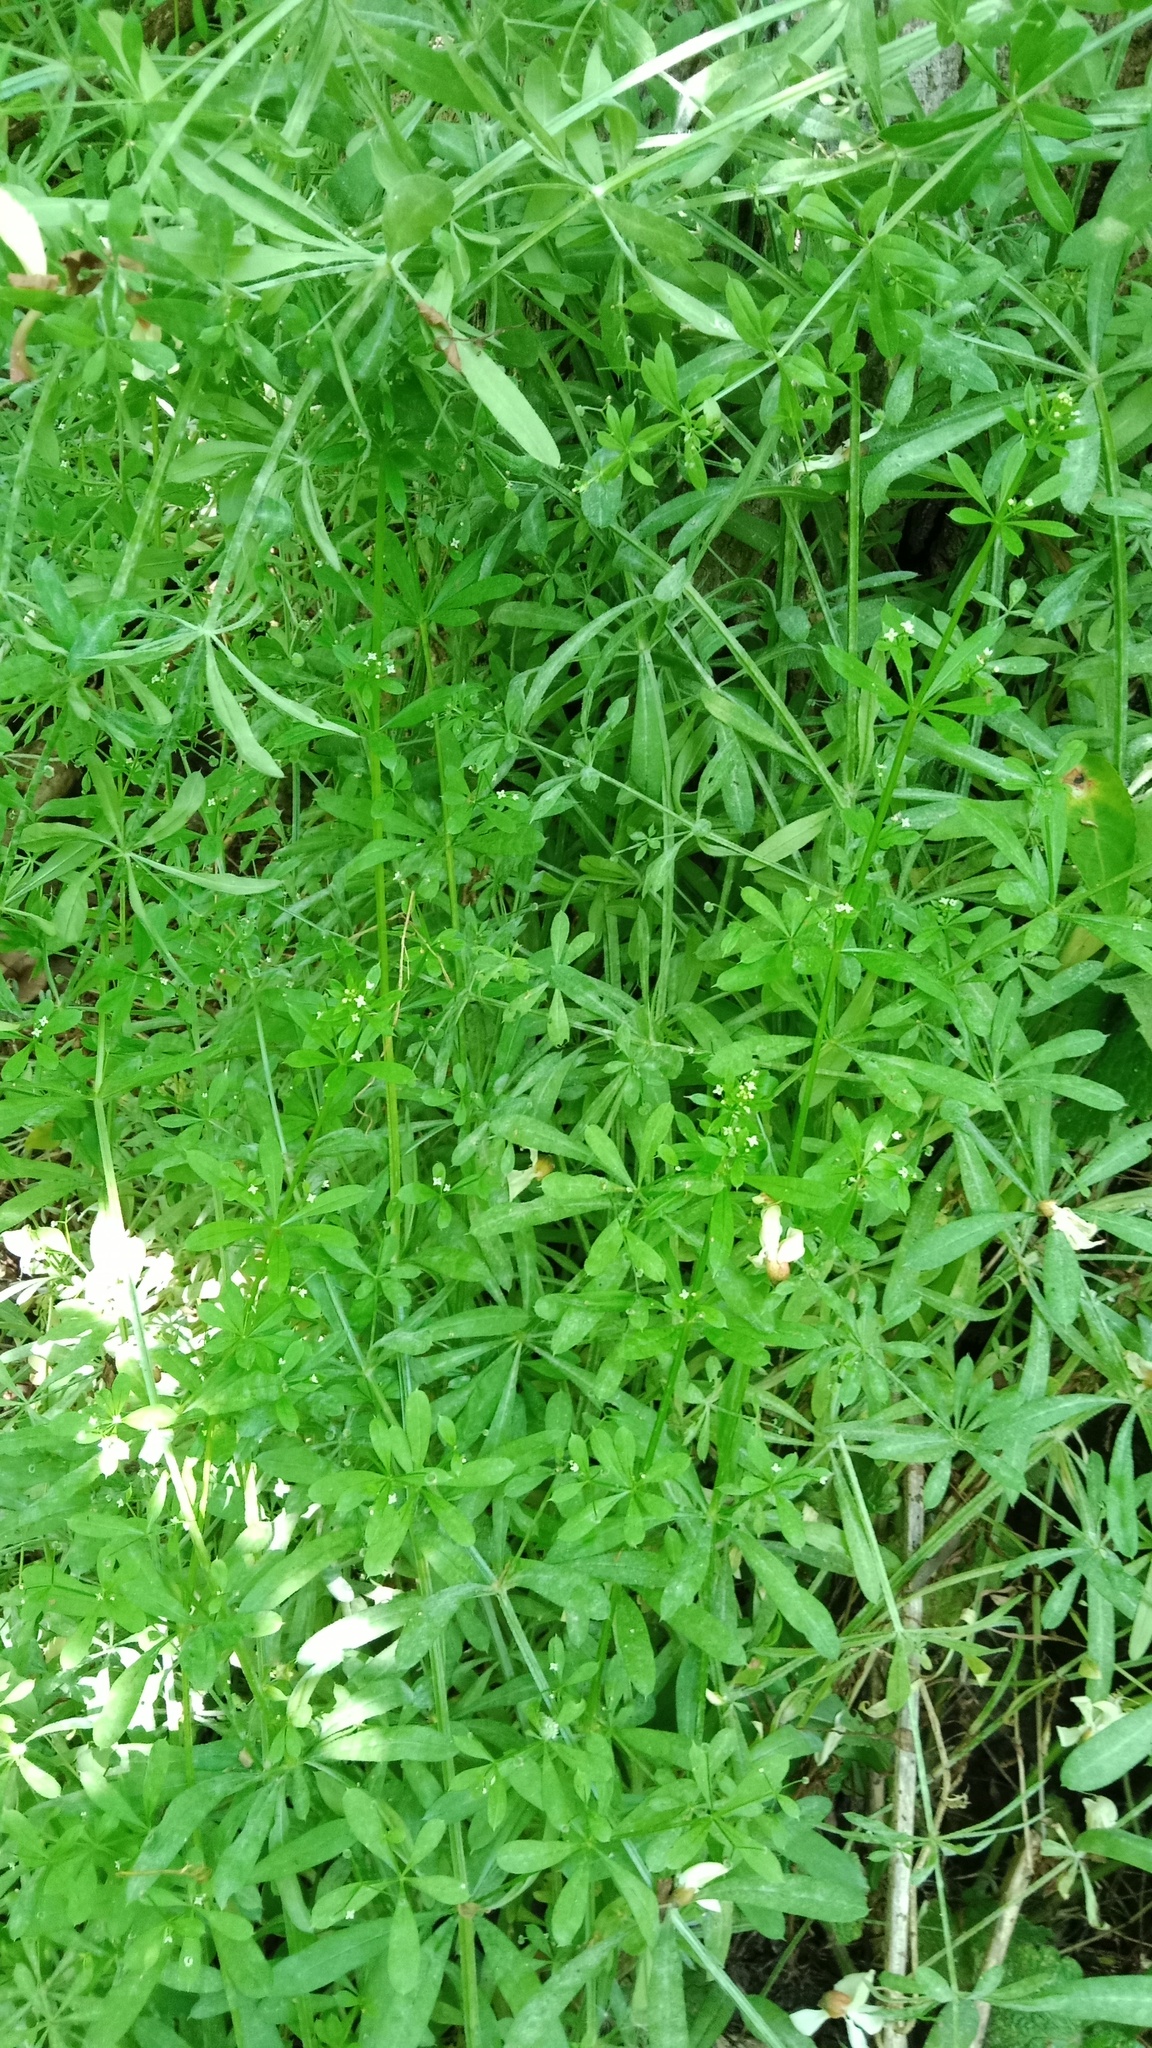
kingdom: Plantae
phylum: Tracheophyta
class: Magnoliopsida
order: Gentianales
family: Rubiaceae
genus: Galium
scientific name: Galium aparine
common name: Cleavers
